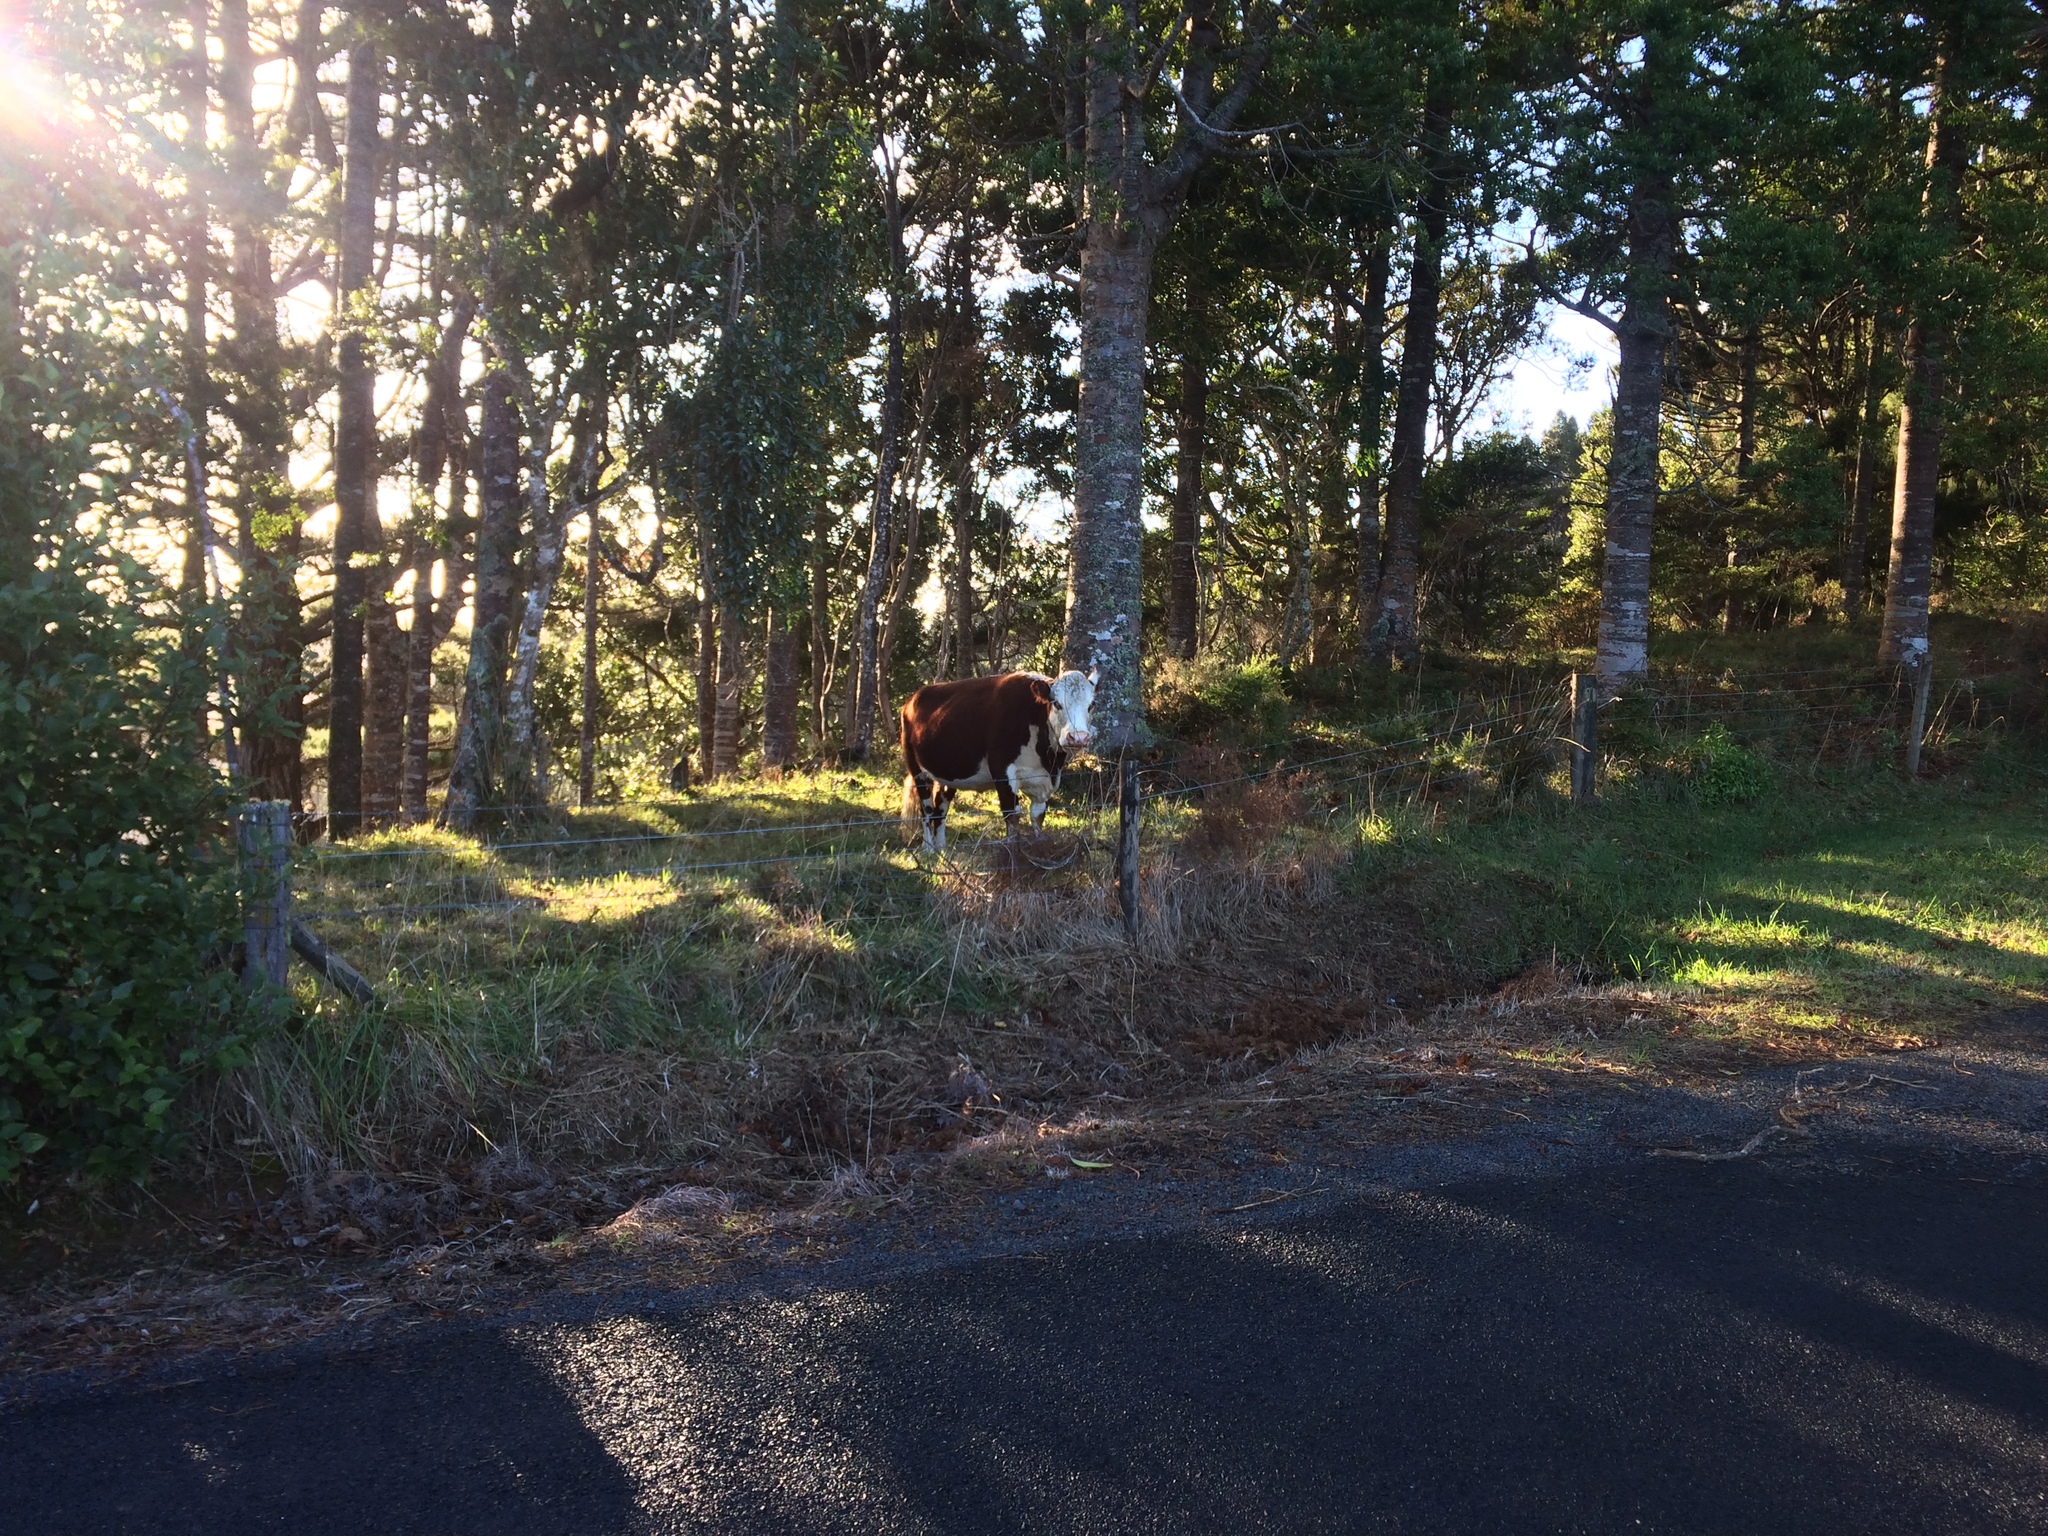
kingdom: Plantae
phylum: Tracheophyta
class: Pinopsida
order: Pinales
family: Araucariaceae
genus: Agathis
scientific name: Agathis australis
